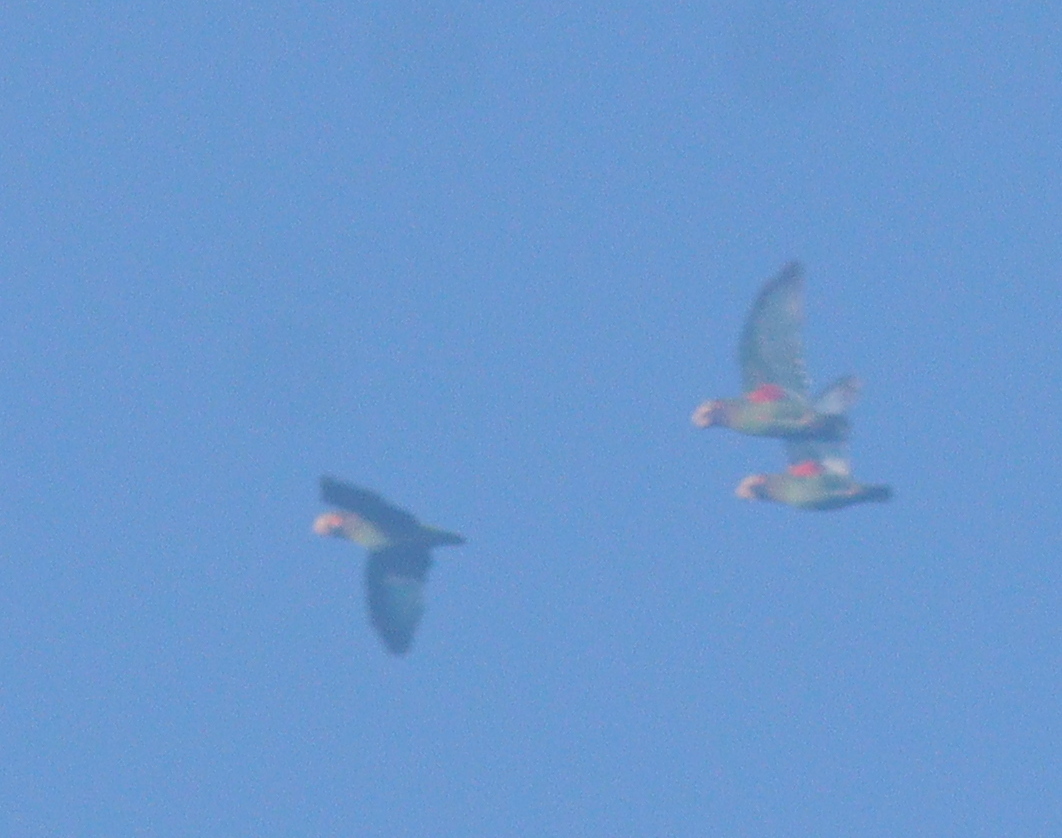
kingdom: Animalia
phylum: Chordata
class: Aves
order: Psittaciformes
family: Psittacidae
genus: Pionopsitta
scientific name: Pionopsitta haematotis
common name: Brown-hooded parrot
